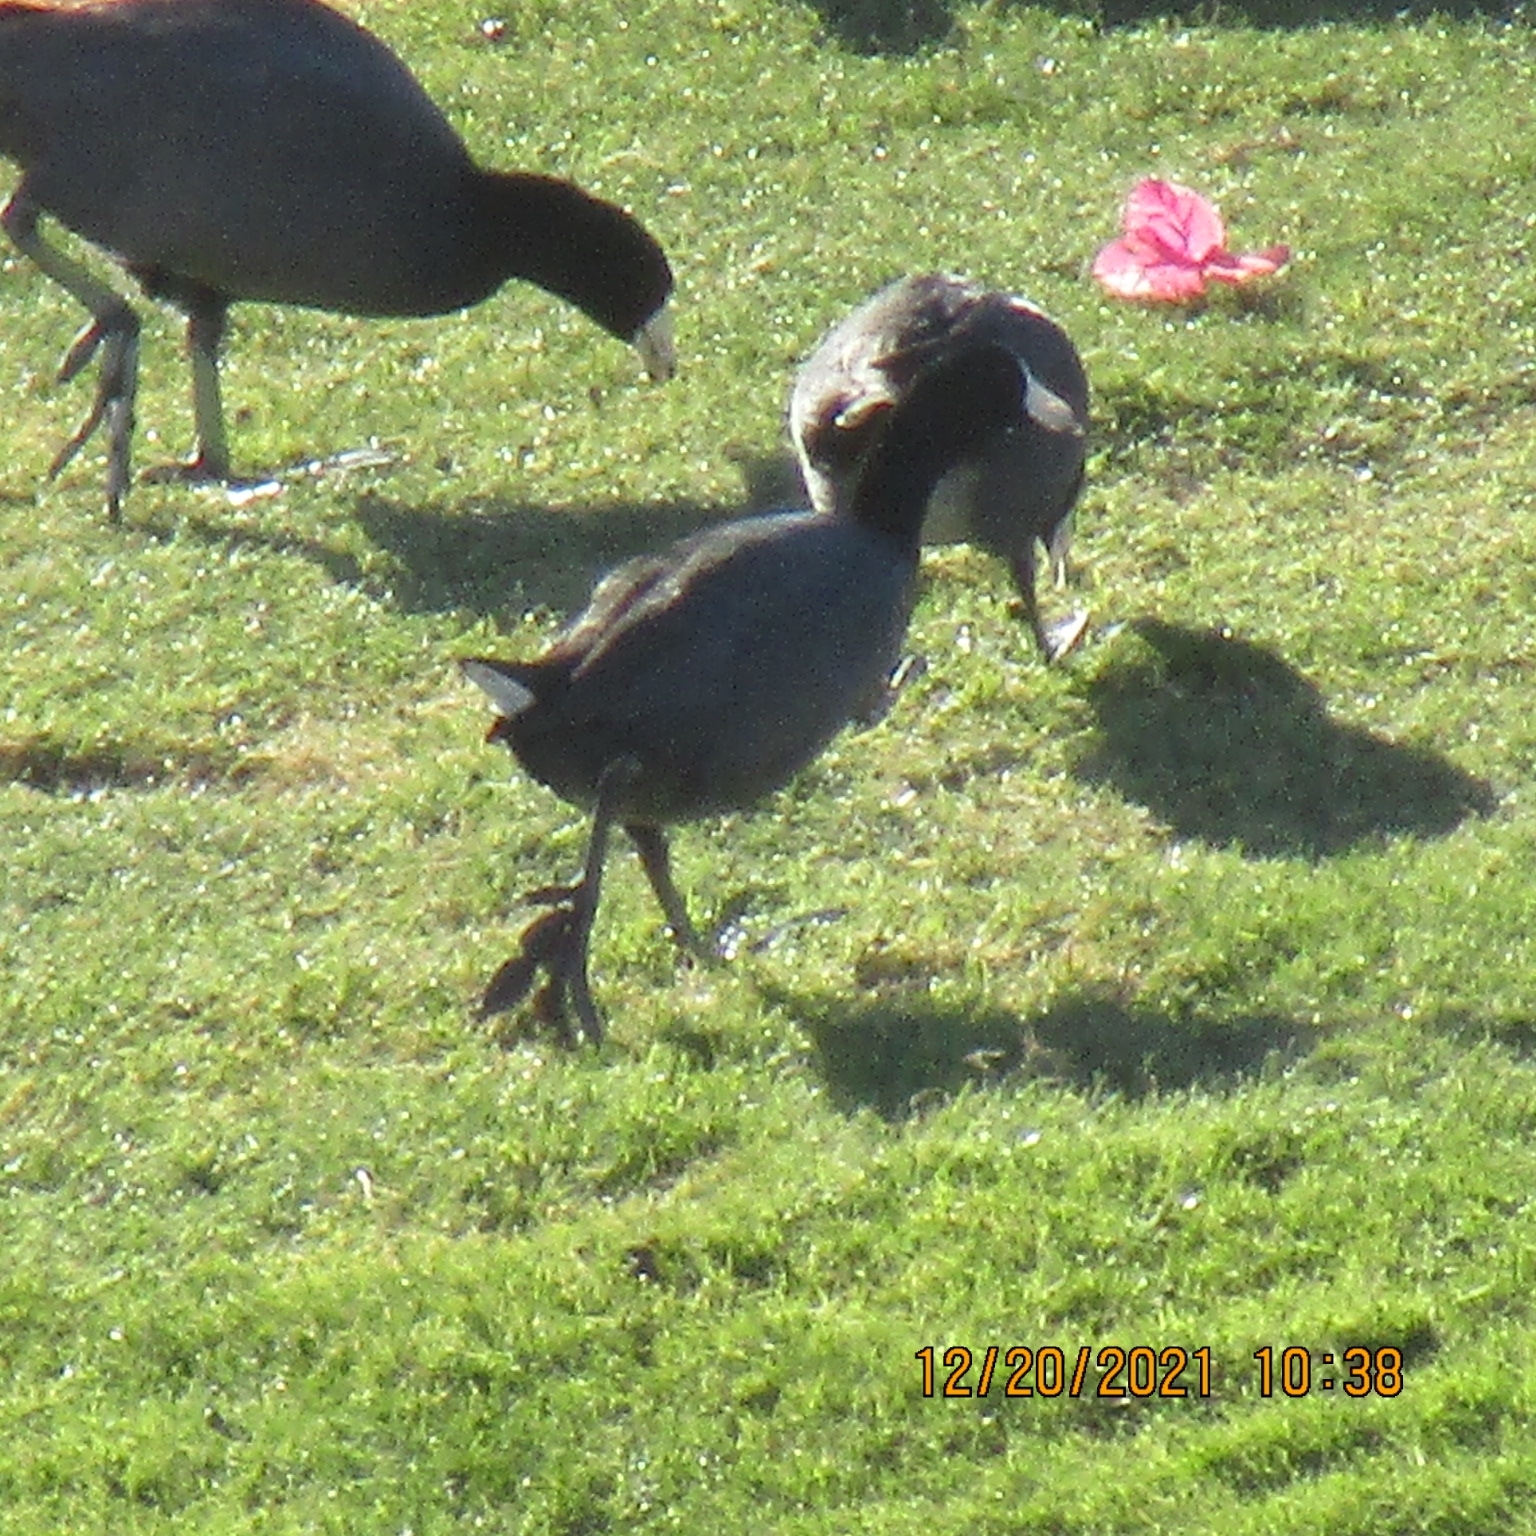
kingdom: Animalia
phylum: Chordata
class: Aves
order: Gruiformes
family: Rallidae
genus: Fulica
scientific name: Fulica americana
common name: American coot
